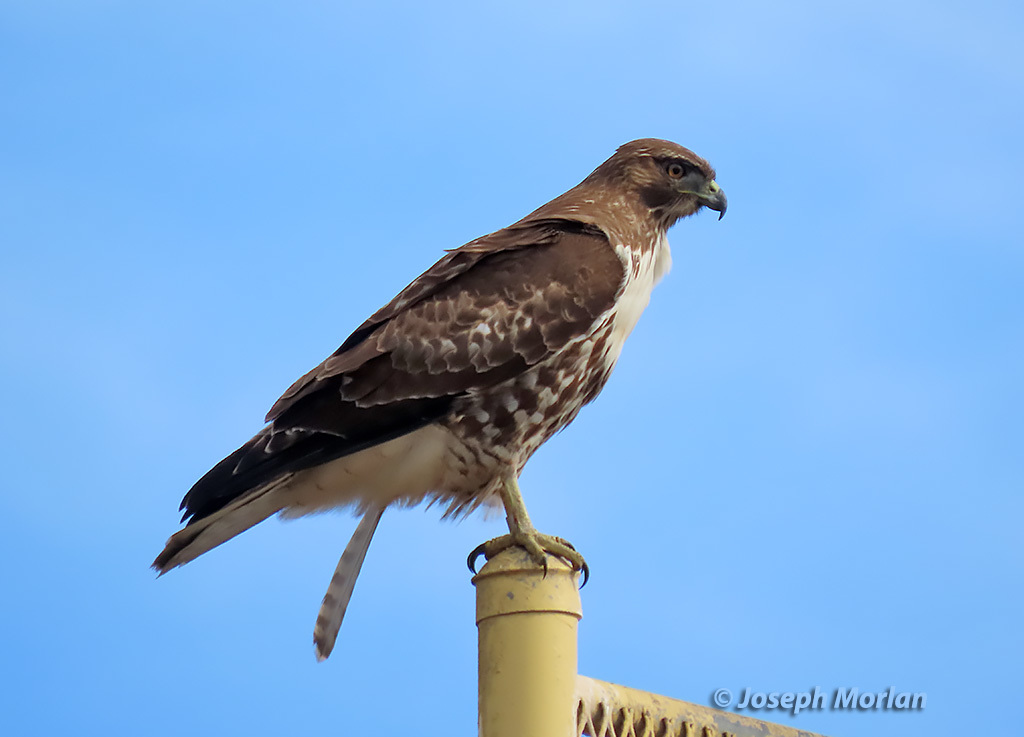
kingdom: Animalia
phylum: Chordata
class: Aves
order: Accipitriformes
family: Accipitridae
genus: Buteo
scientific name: Buteo jamaicensis
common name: Red-tailed hawk
